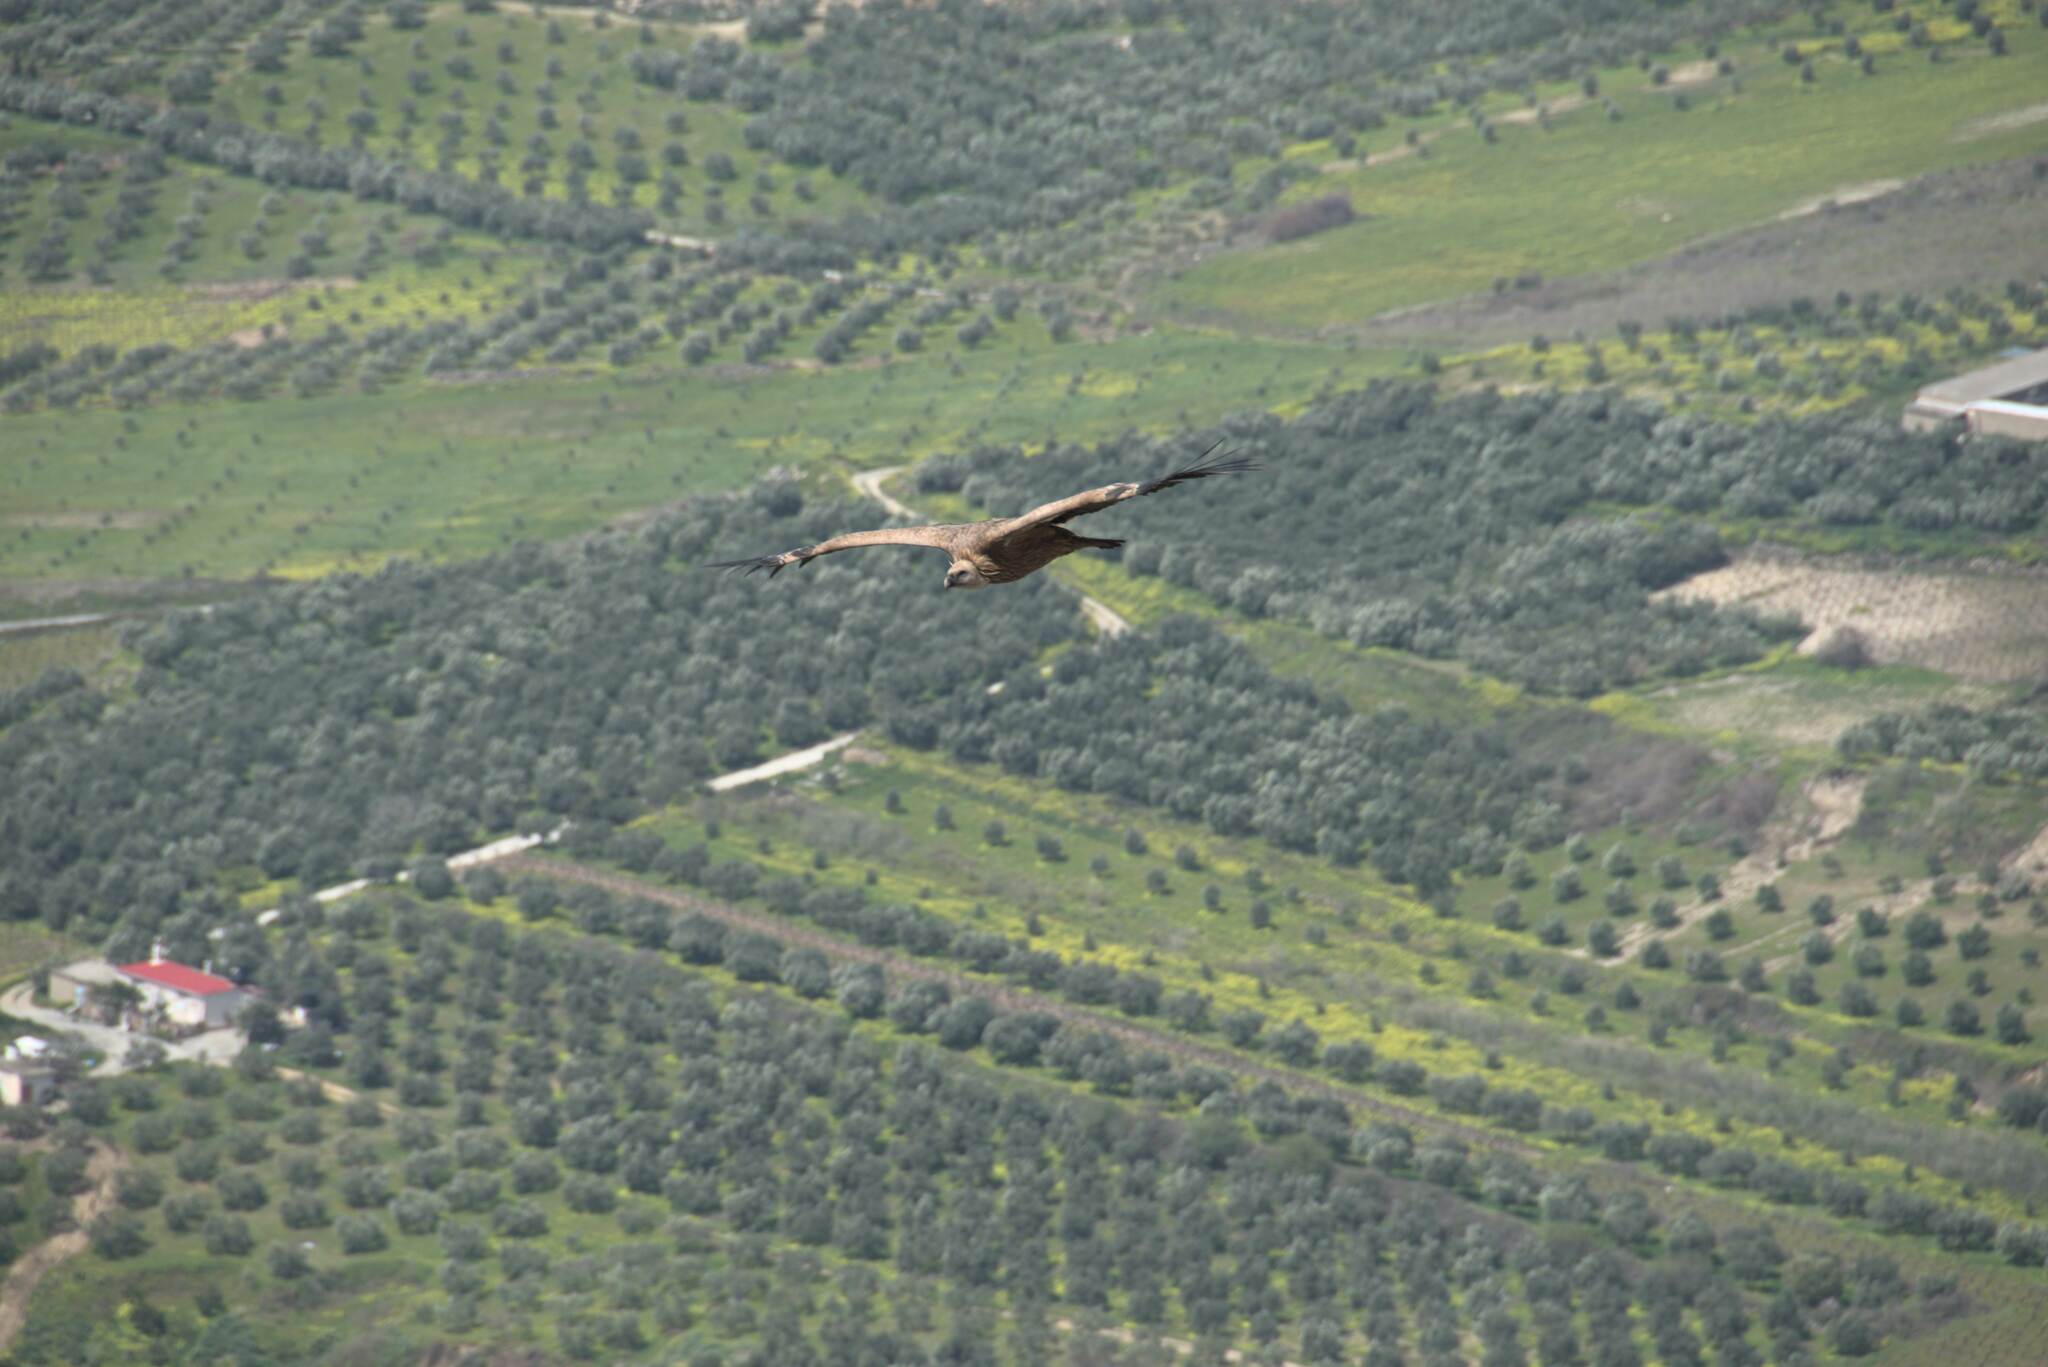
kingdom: Animalia
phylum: Chordata
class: Aves
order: Accipitriformes
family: Accipitridae
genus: Gyps
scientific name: Gyps fulvus
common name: Griffon vulture
